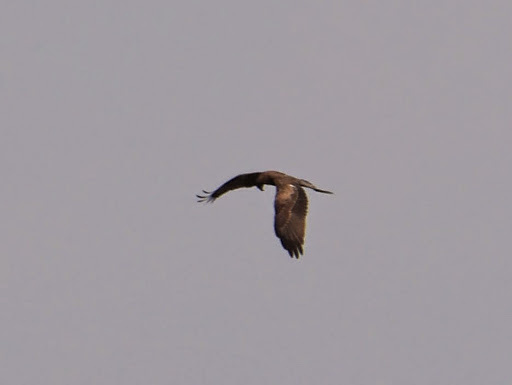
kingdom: Animalia
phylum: Chordata
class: Aves
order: Accipitriformes
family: Accipitridae
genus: Milvus
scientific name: Milvus migrans
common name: Black kite
